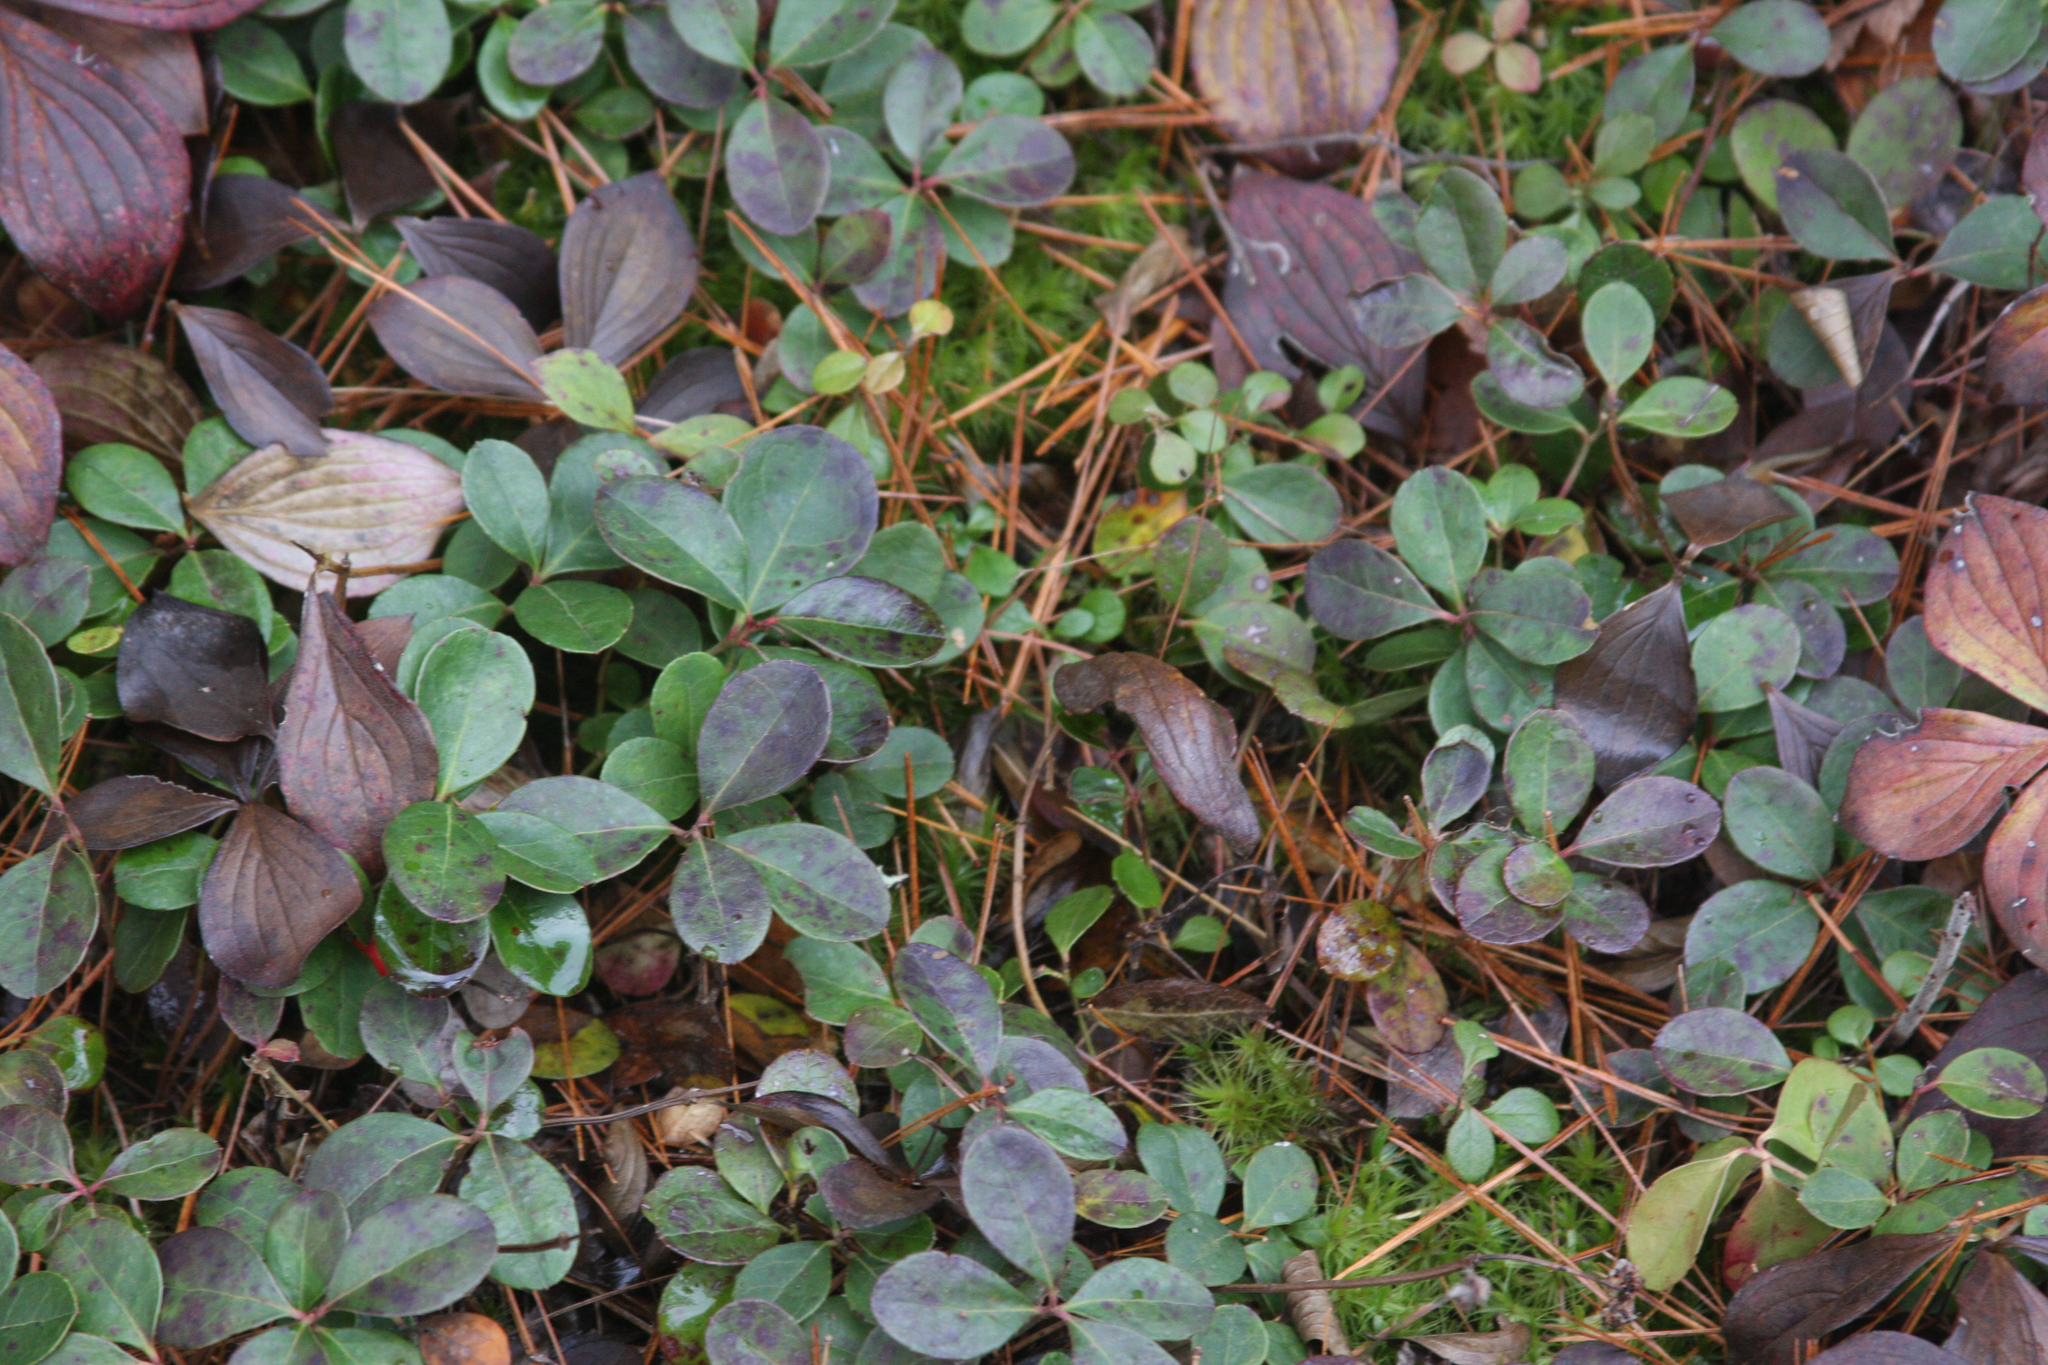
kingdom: Plantae
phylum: Tracheophyta
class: Magnoliopsida
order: Ericales
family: Ericaceae
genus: Gaultheria
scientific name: Gaultheria procumbens
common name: Checkerberry
